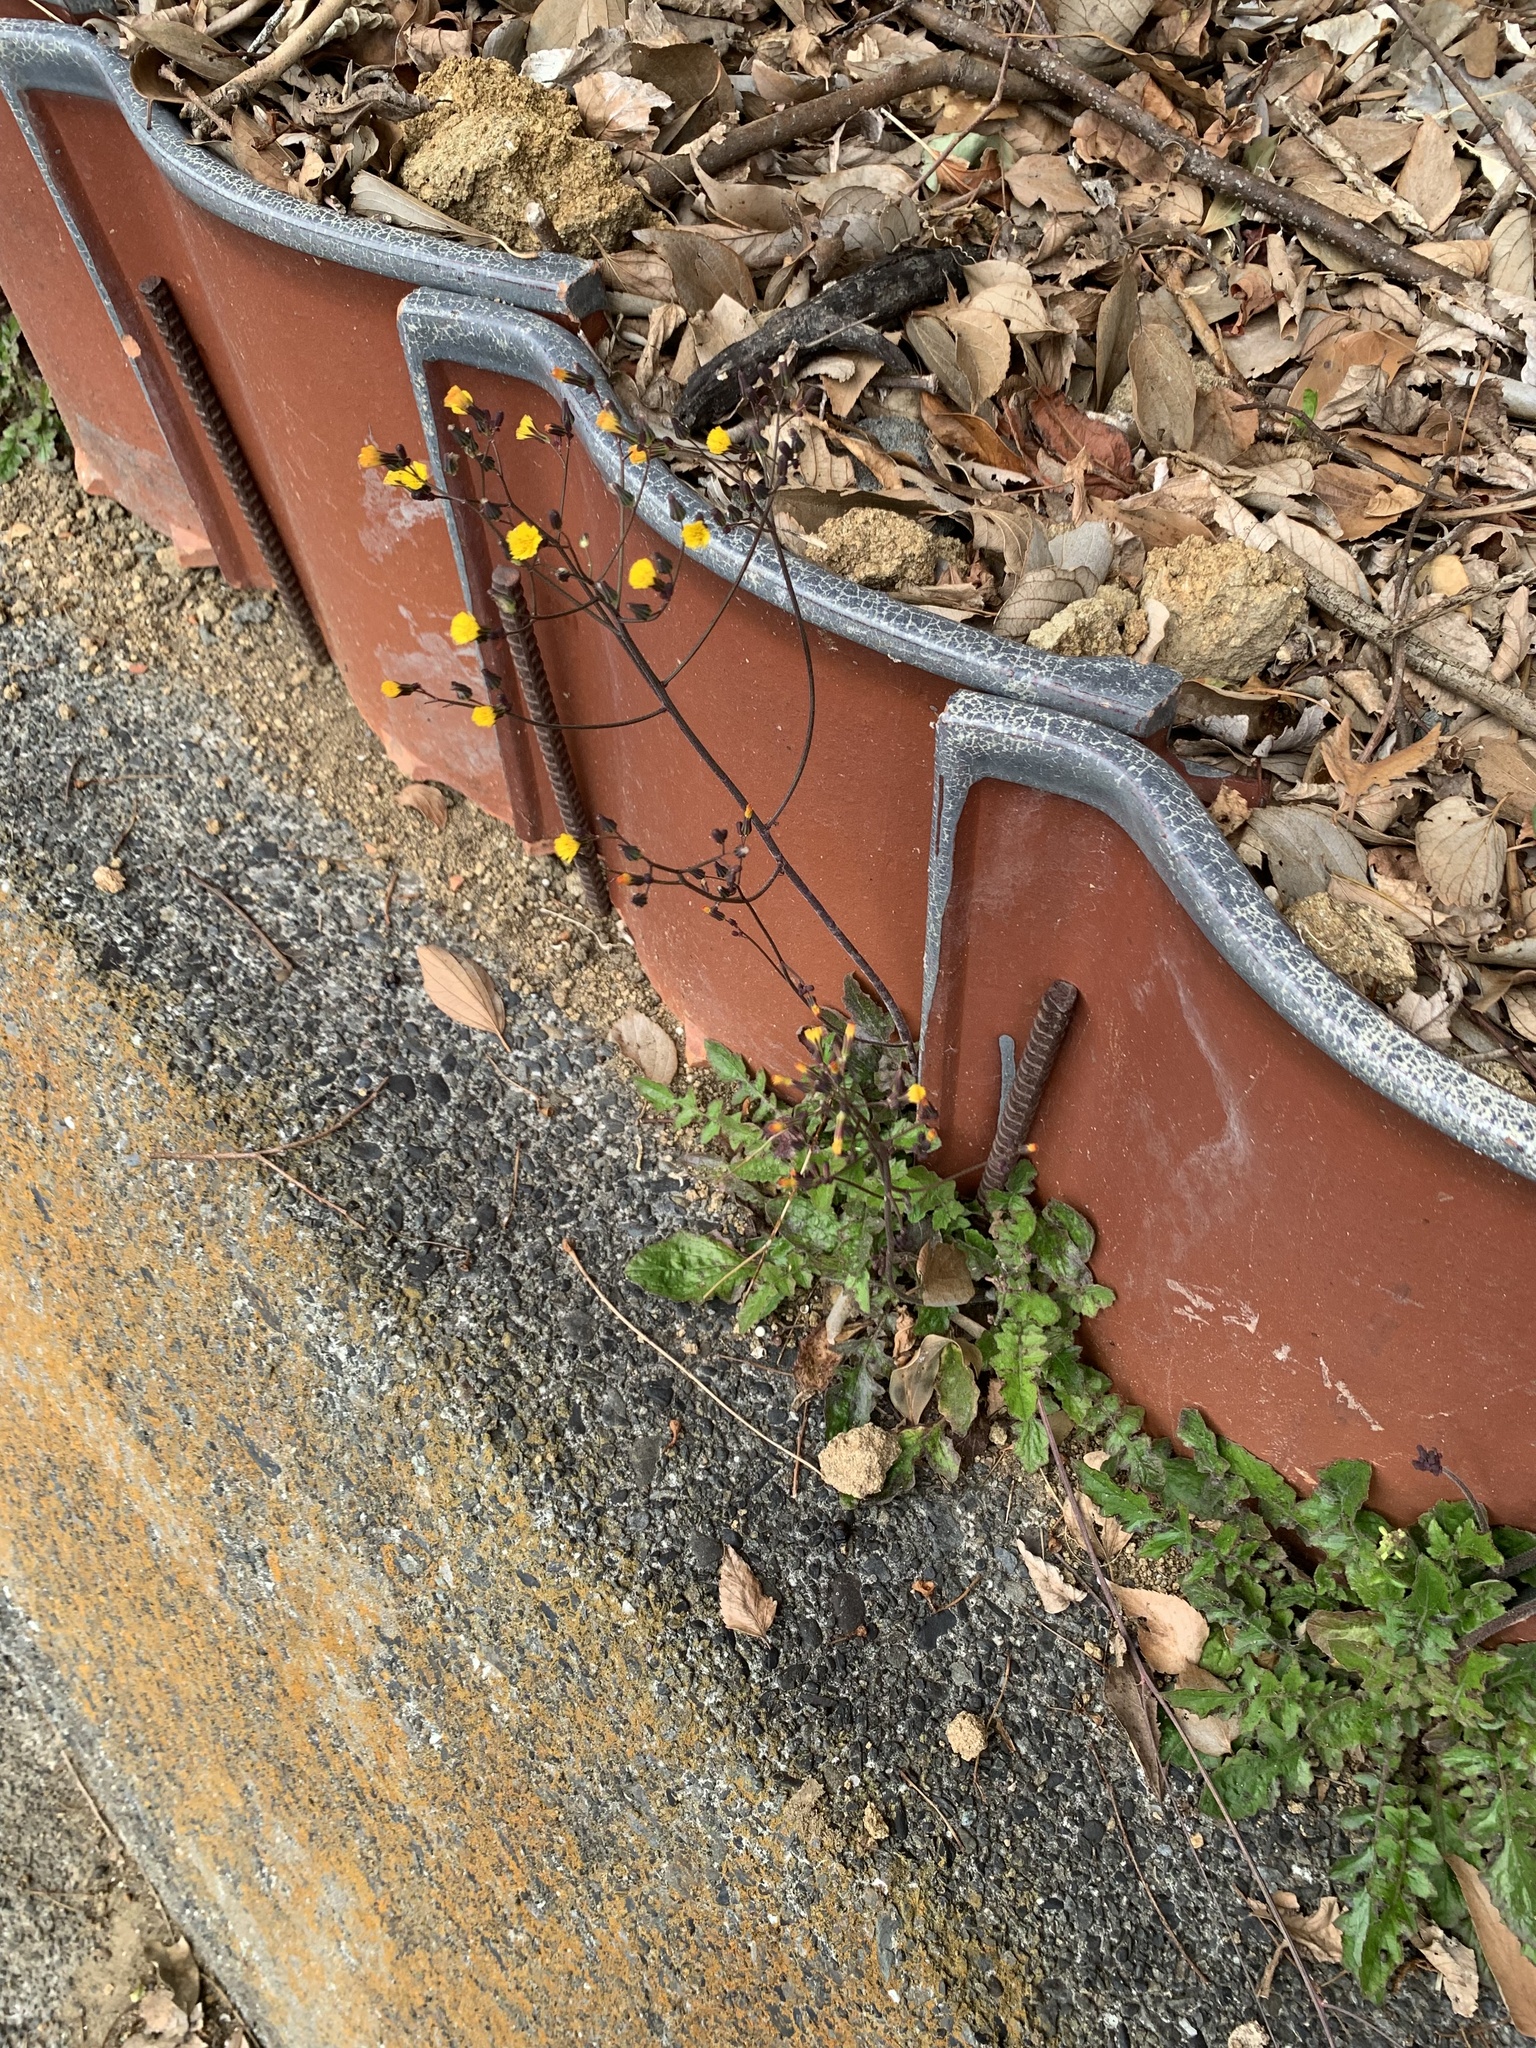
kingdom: Plantae
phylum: Tracheophyta
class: Magnoliopsida
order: Asterales
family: Asteraceae
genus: Youngia
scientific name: Youngia japonica
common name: Oriental false hawksbeard
